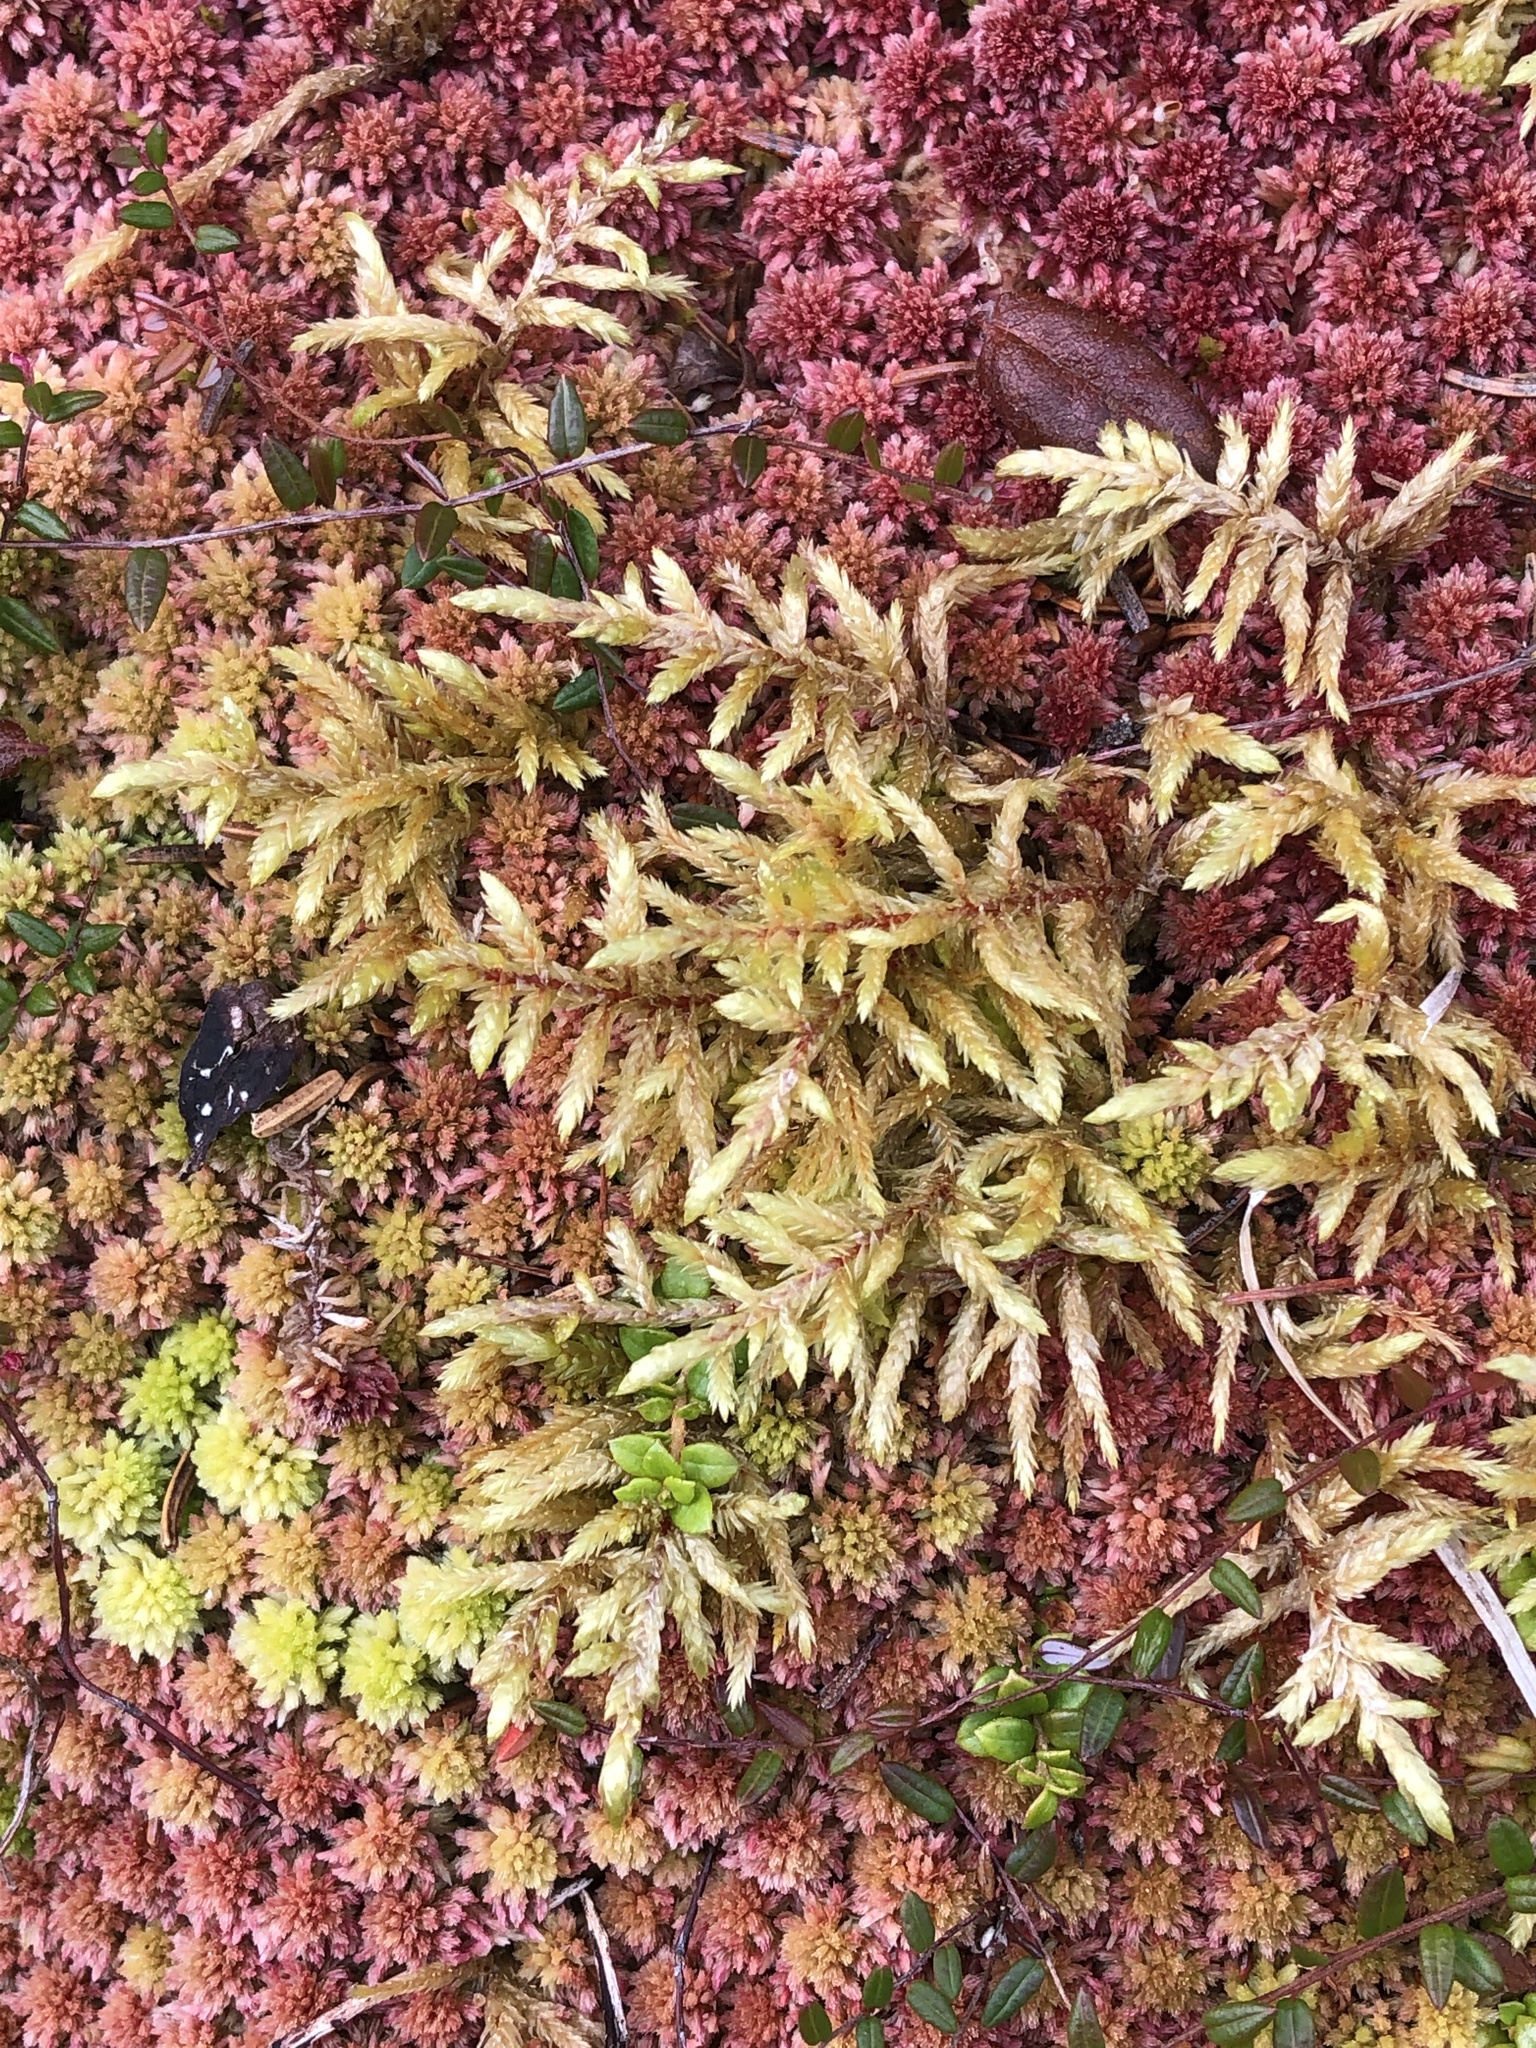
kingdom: Plantae
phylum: Bryophyta
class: Bryopsida
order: Hypnales
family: Hylocomiaceae
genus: Pleurozium
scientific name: Pleurozium schreberi
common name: Red-stemmed feather moss
